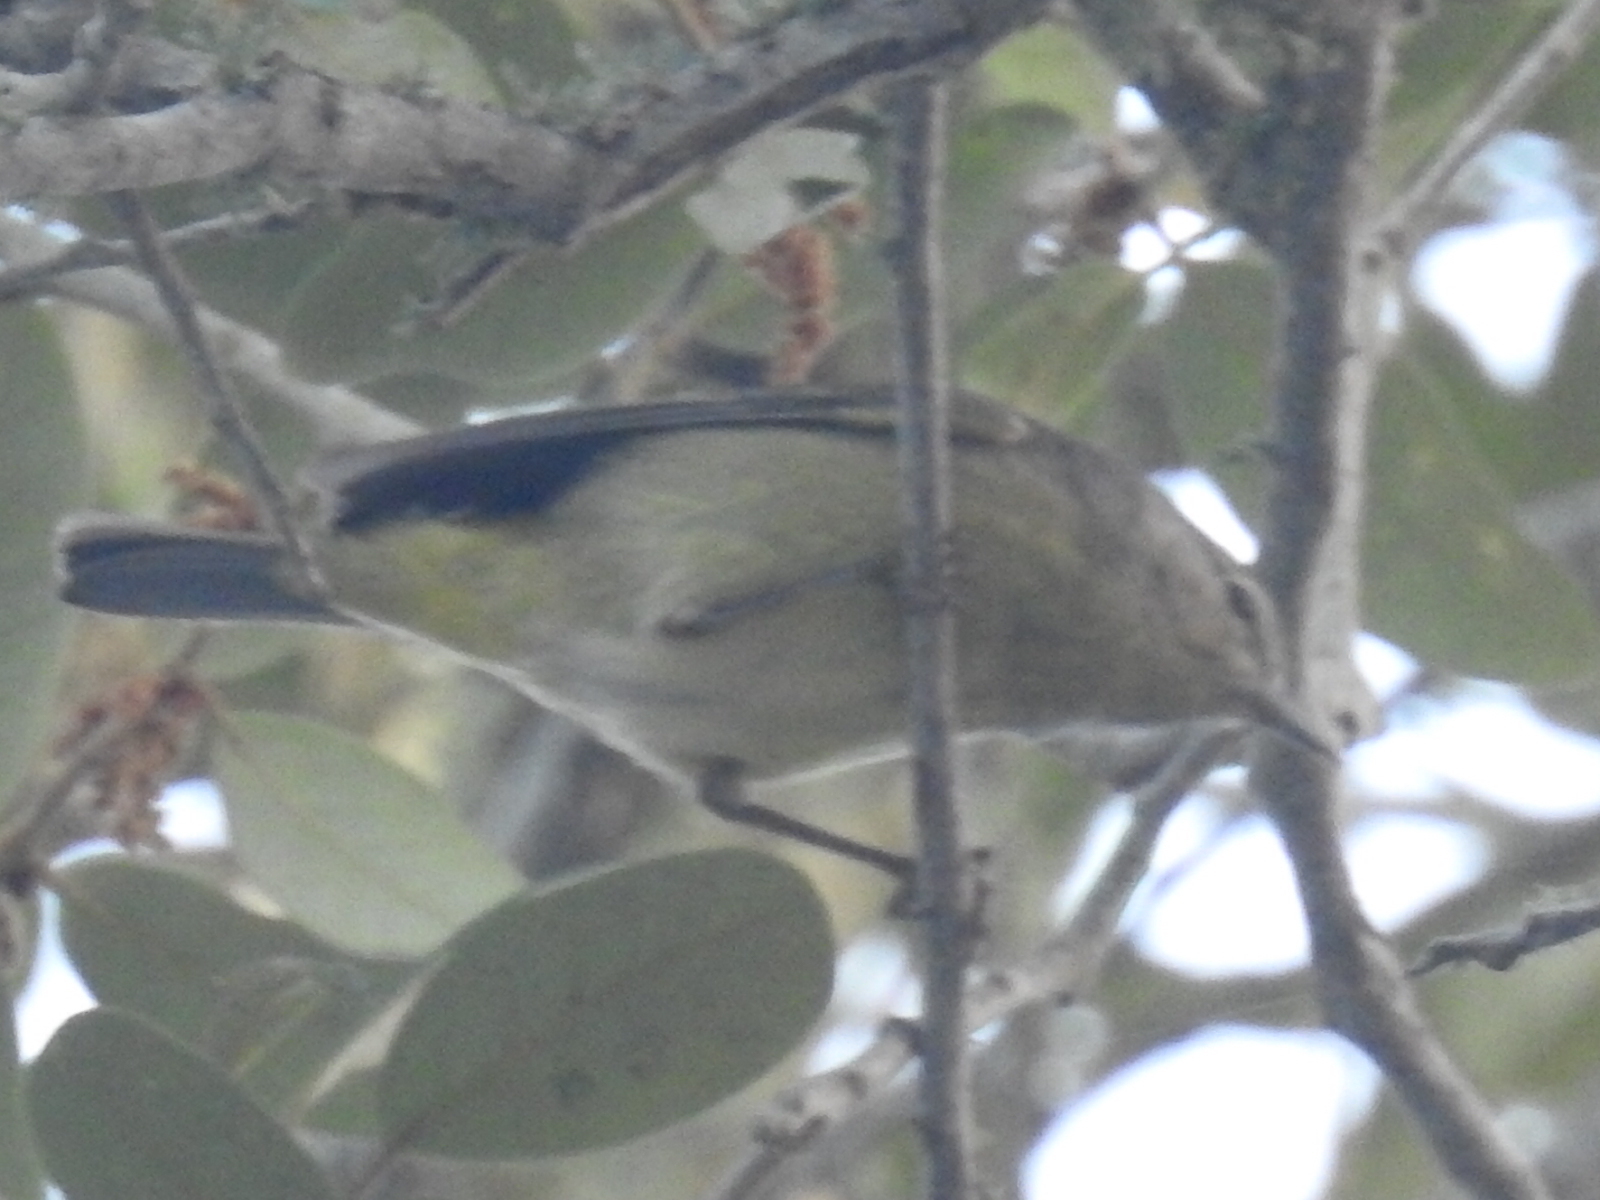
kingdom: Animalia
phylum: Chordata
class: Aves
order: Passeriformes
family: Parulidae
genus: Leiothlypis
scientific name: Leiothlypis celata
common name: Orange-crowned warbler
